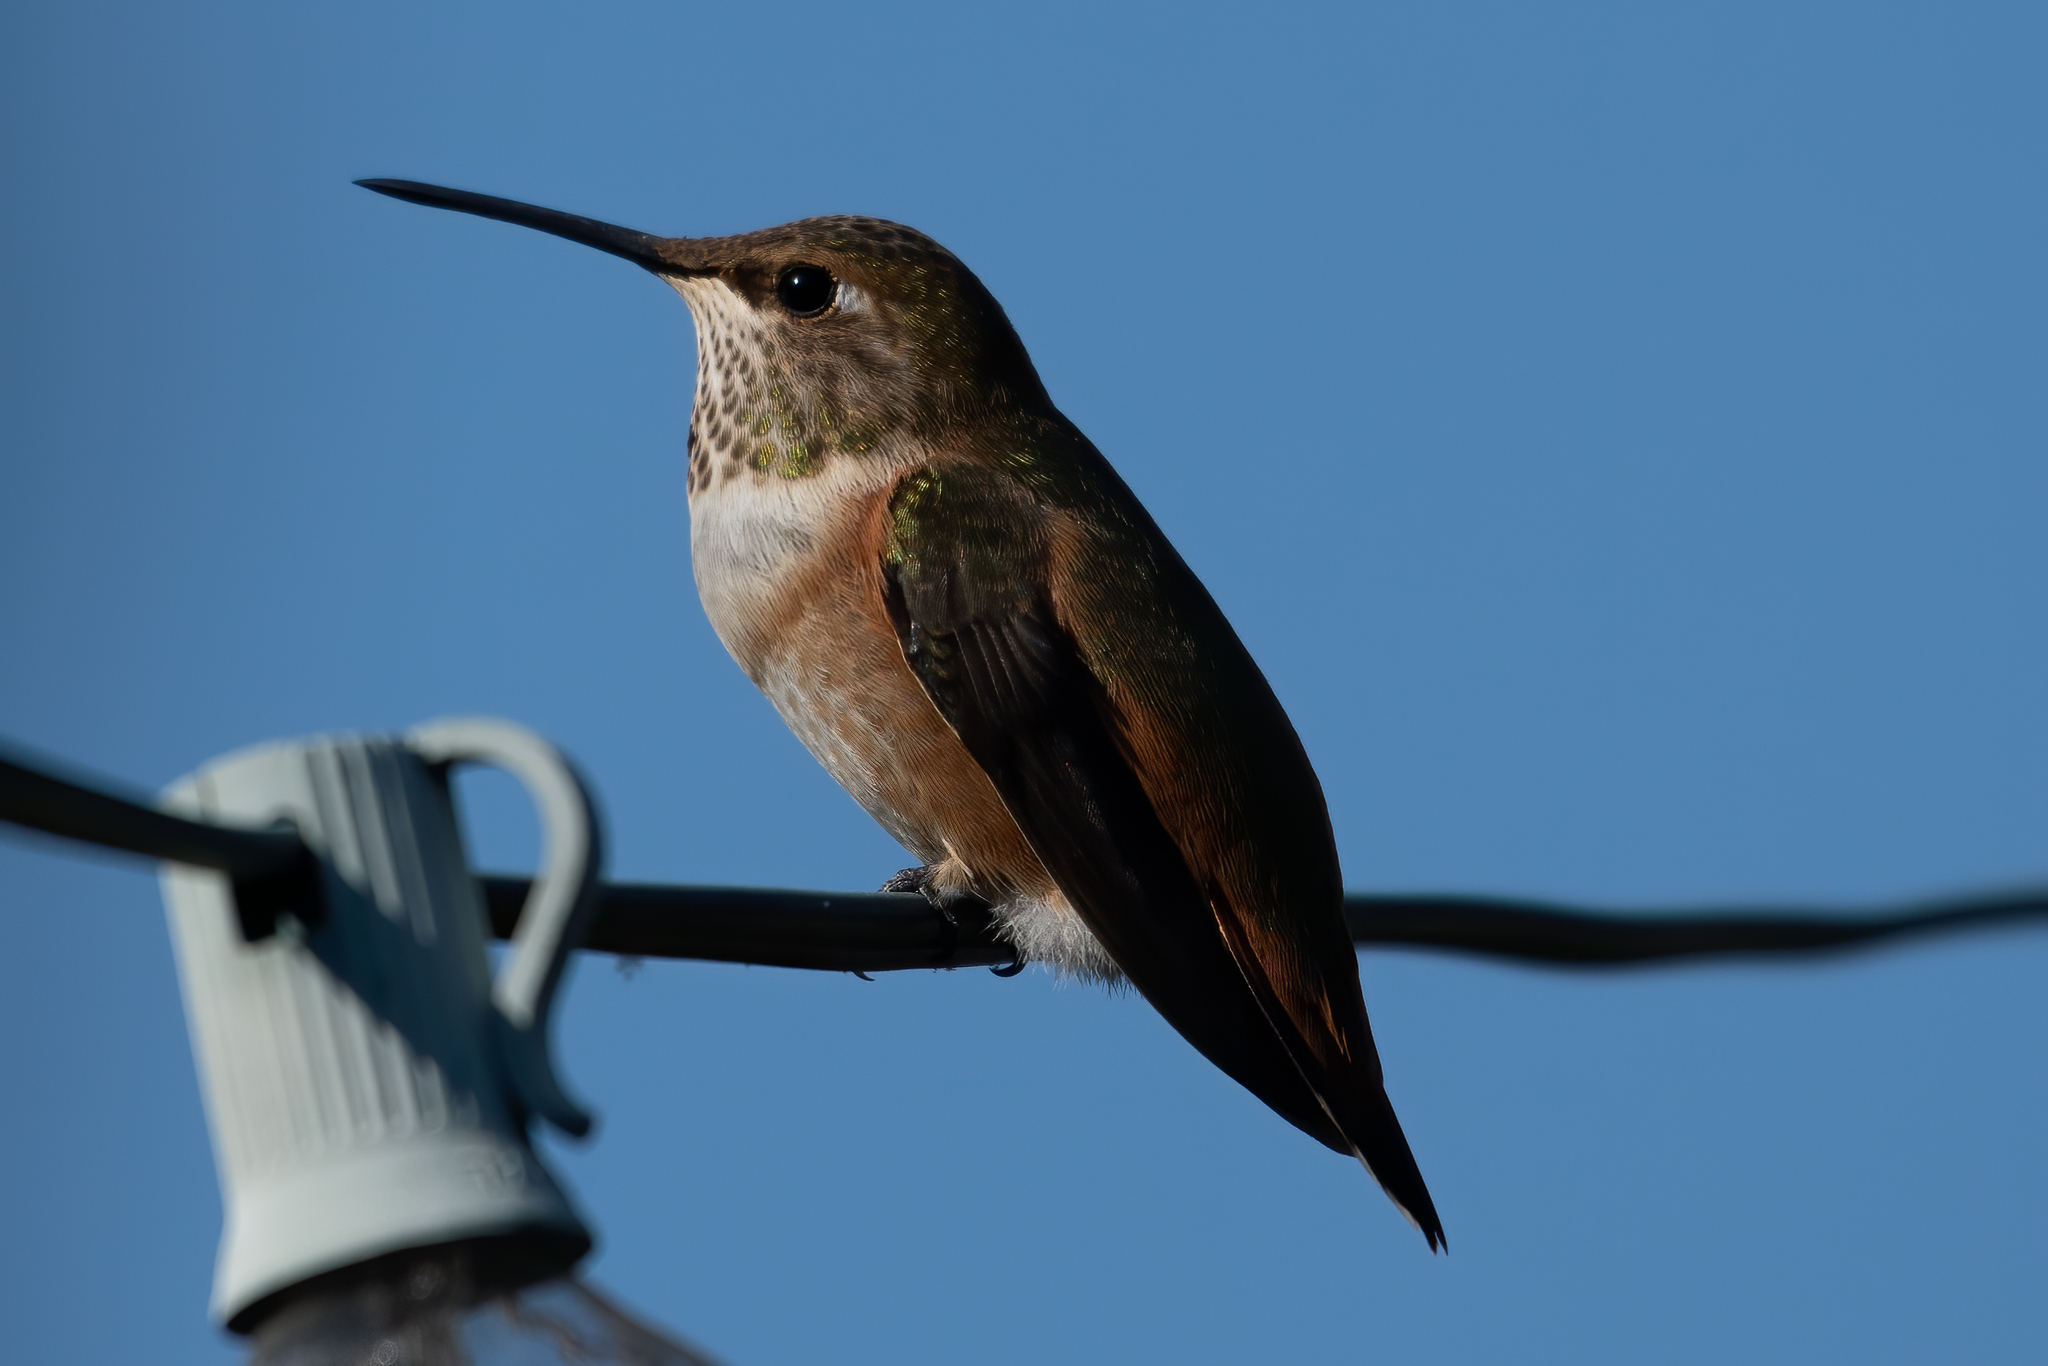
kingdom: Animalia
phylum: Chordata
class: Aves
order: Apodiformes
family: Trochilidae
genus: Selasphorus
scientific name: Selasphorus
